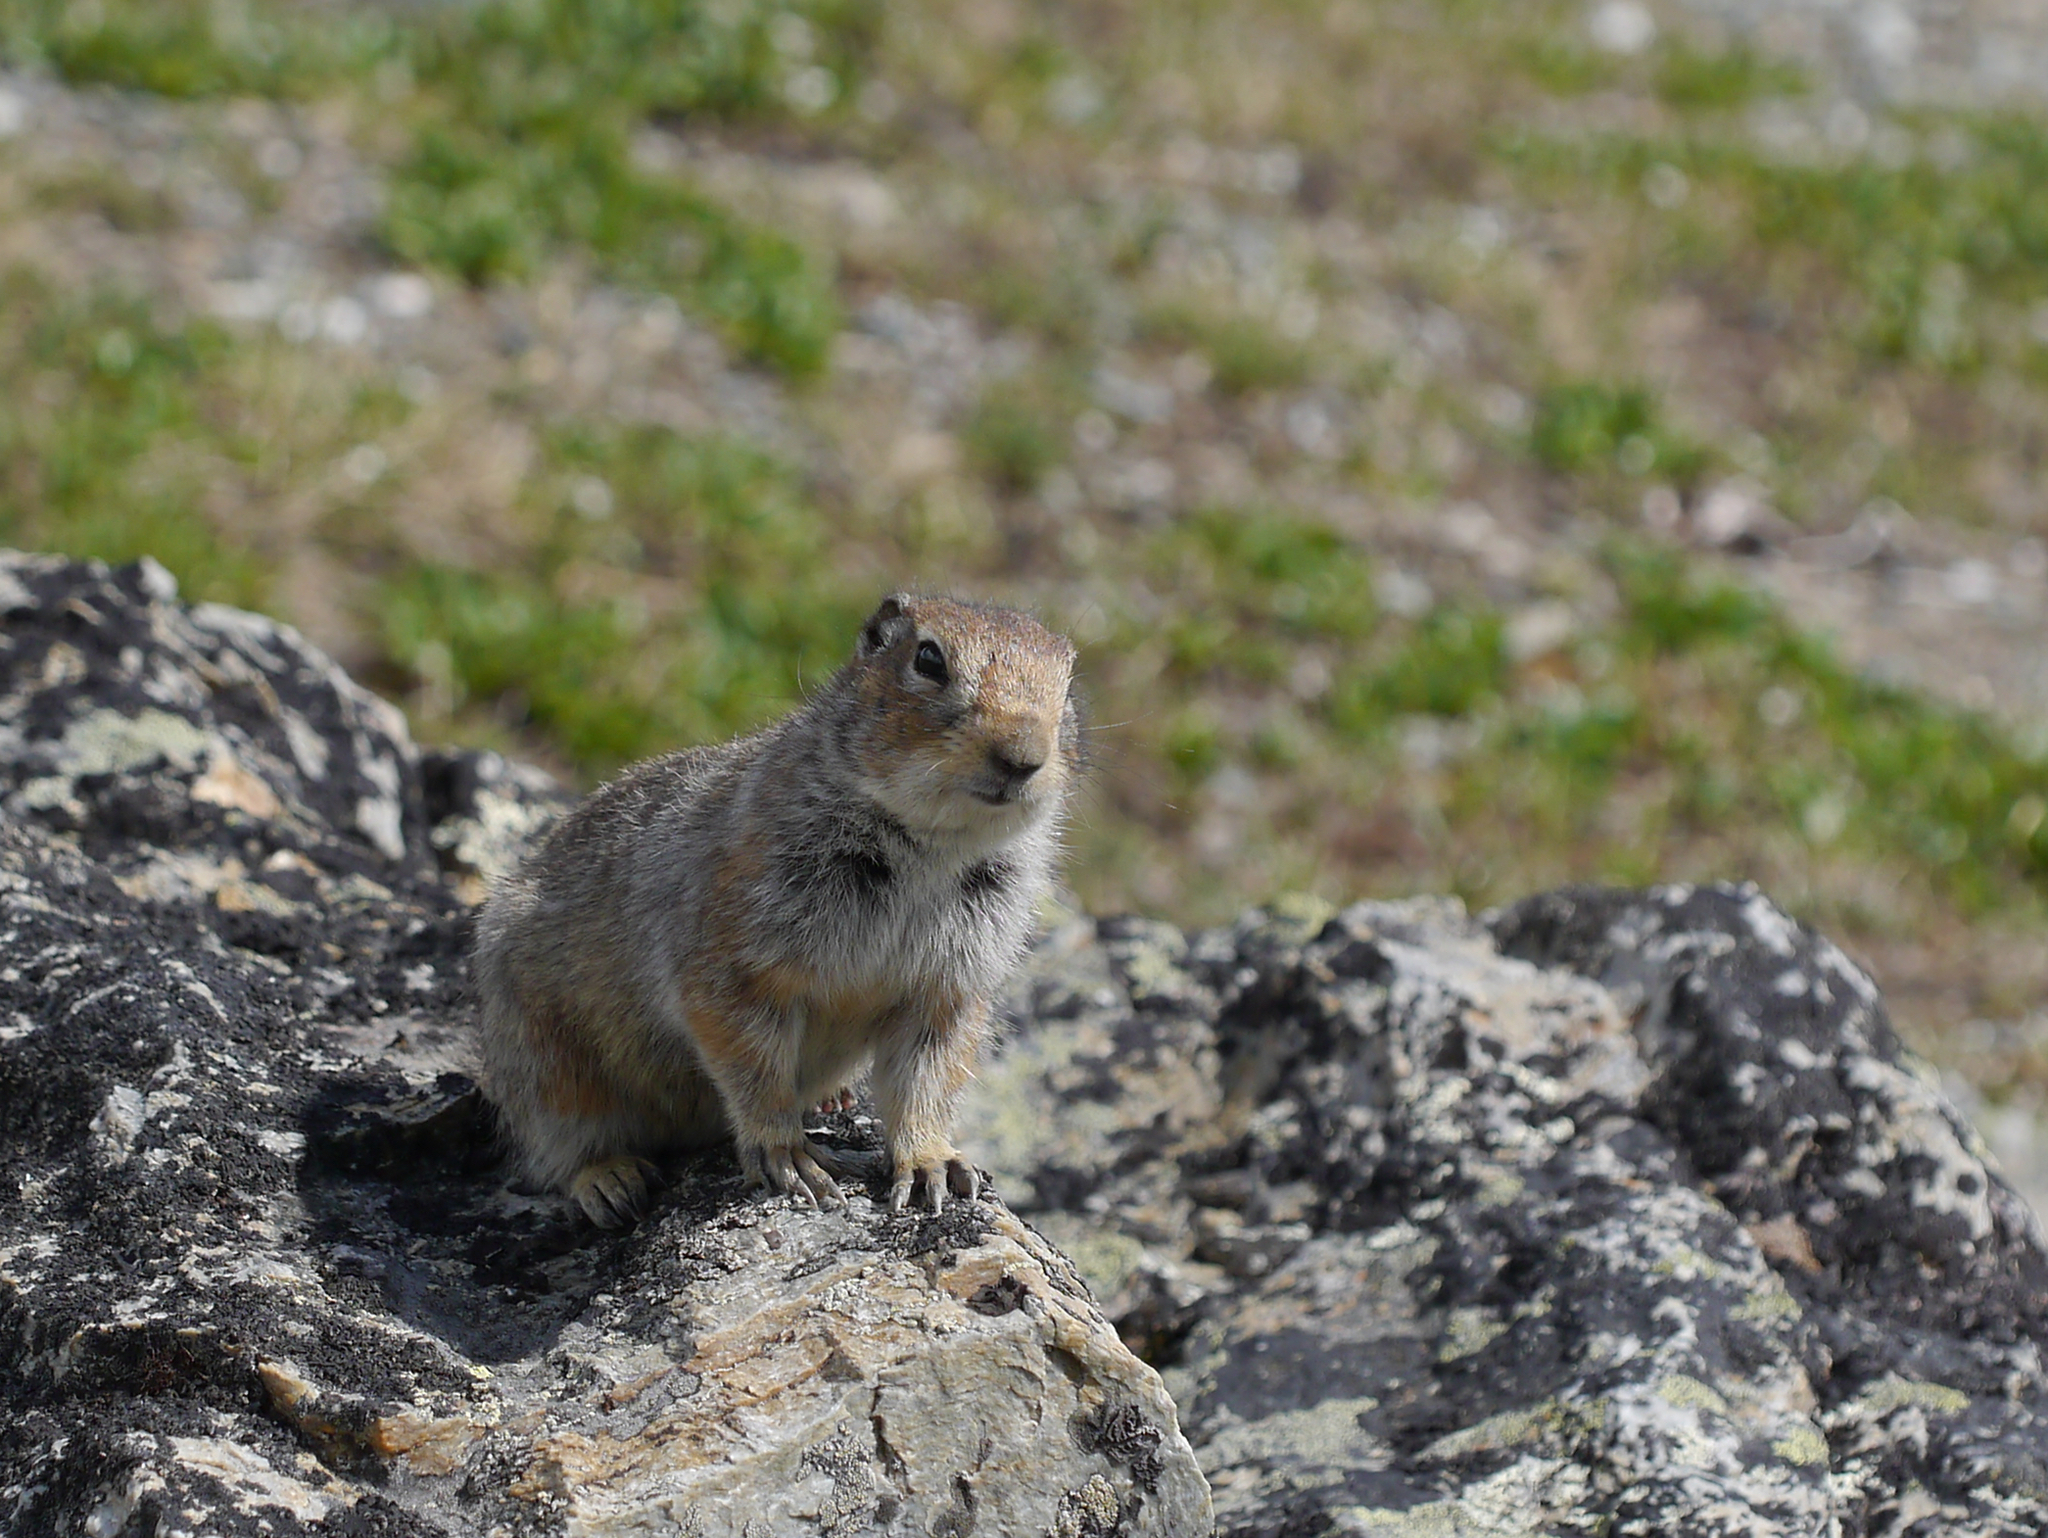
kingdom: Animalia
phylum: Chordata
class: Mammalia
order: Rodentia
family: Sciuridae
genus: Urocitellus
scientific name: Urocitellus parryii
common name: Arctic ground squirrel
